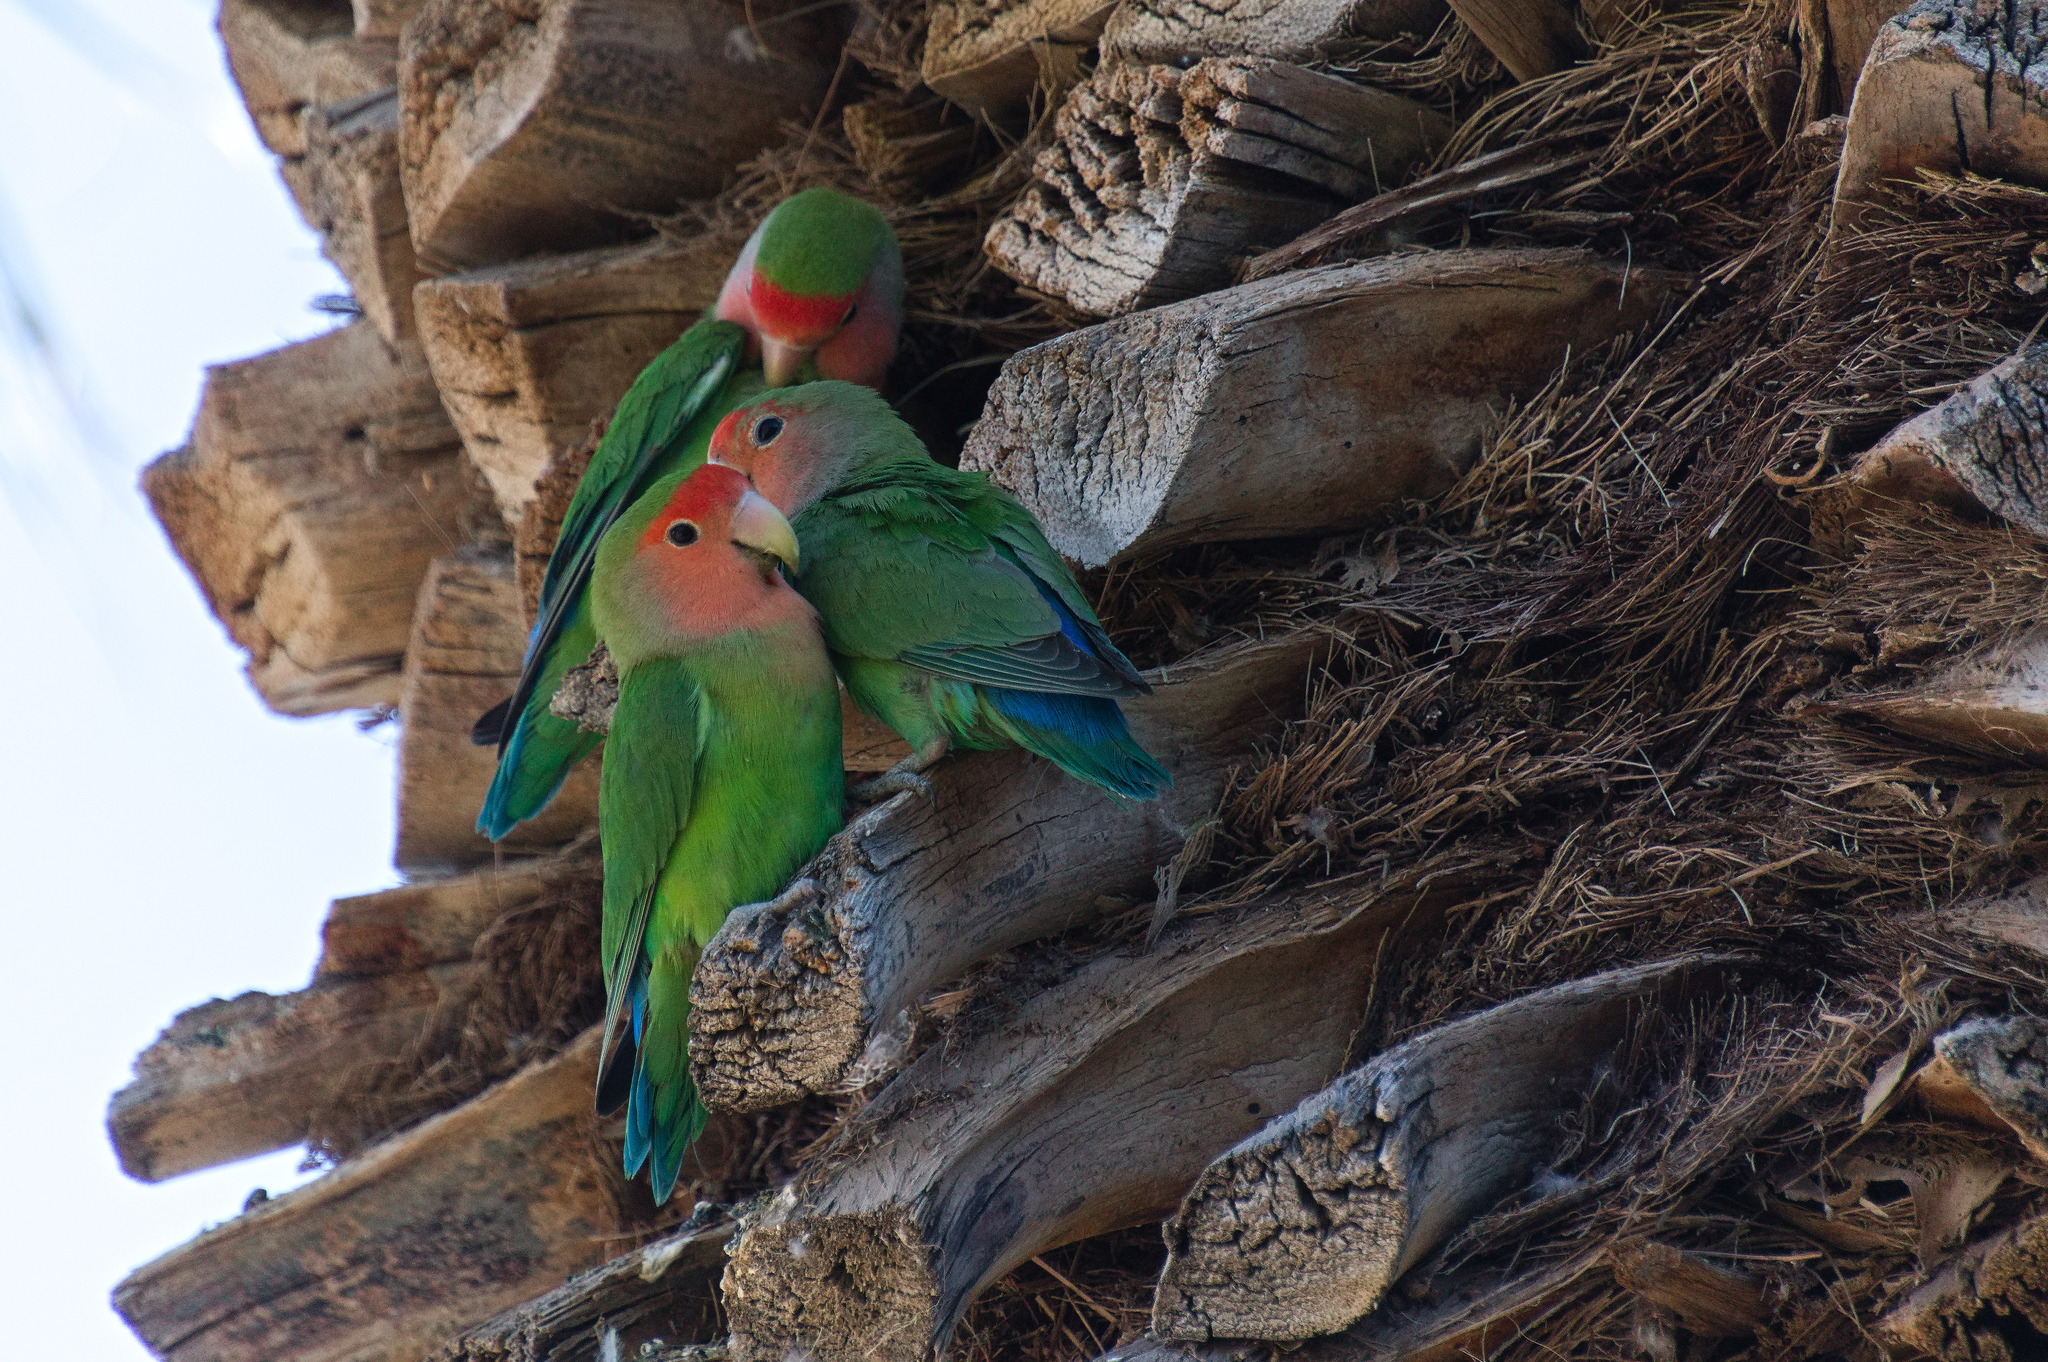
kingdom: Animalia
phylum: Chordata
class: Aves
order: Psittaciformes
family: Psittacidae
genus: Agapornis
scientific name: Agapornis roseicollis
